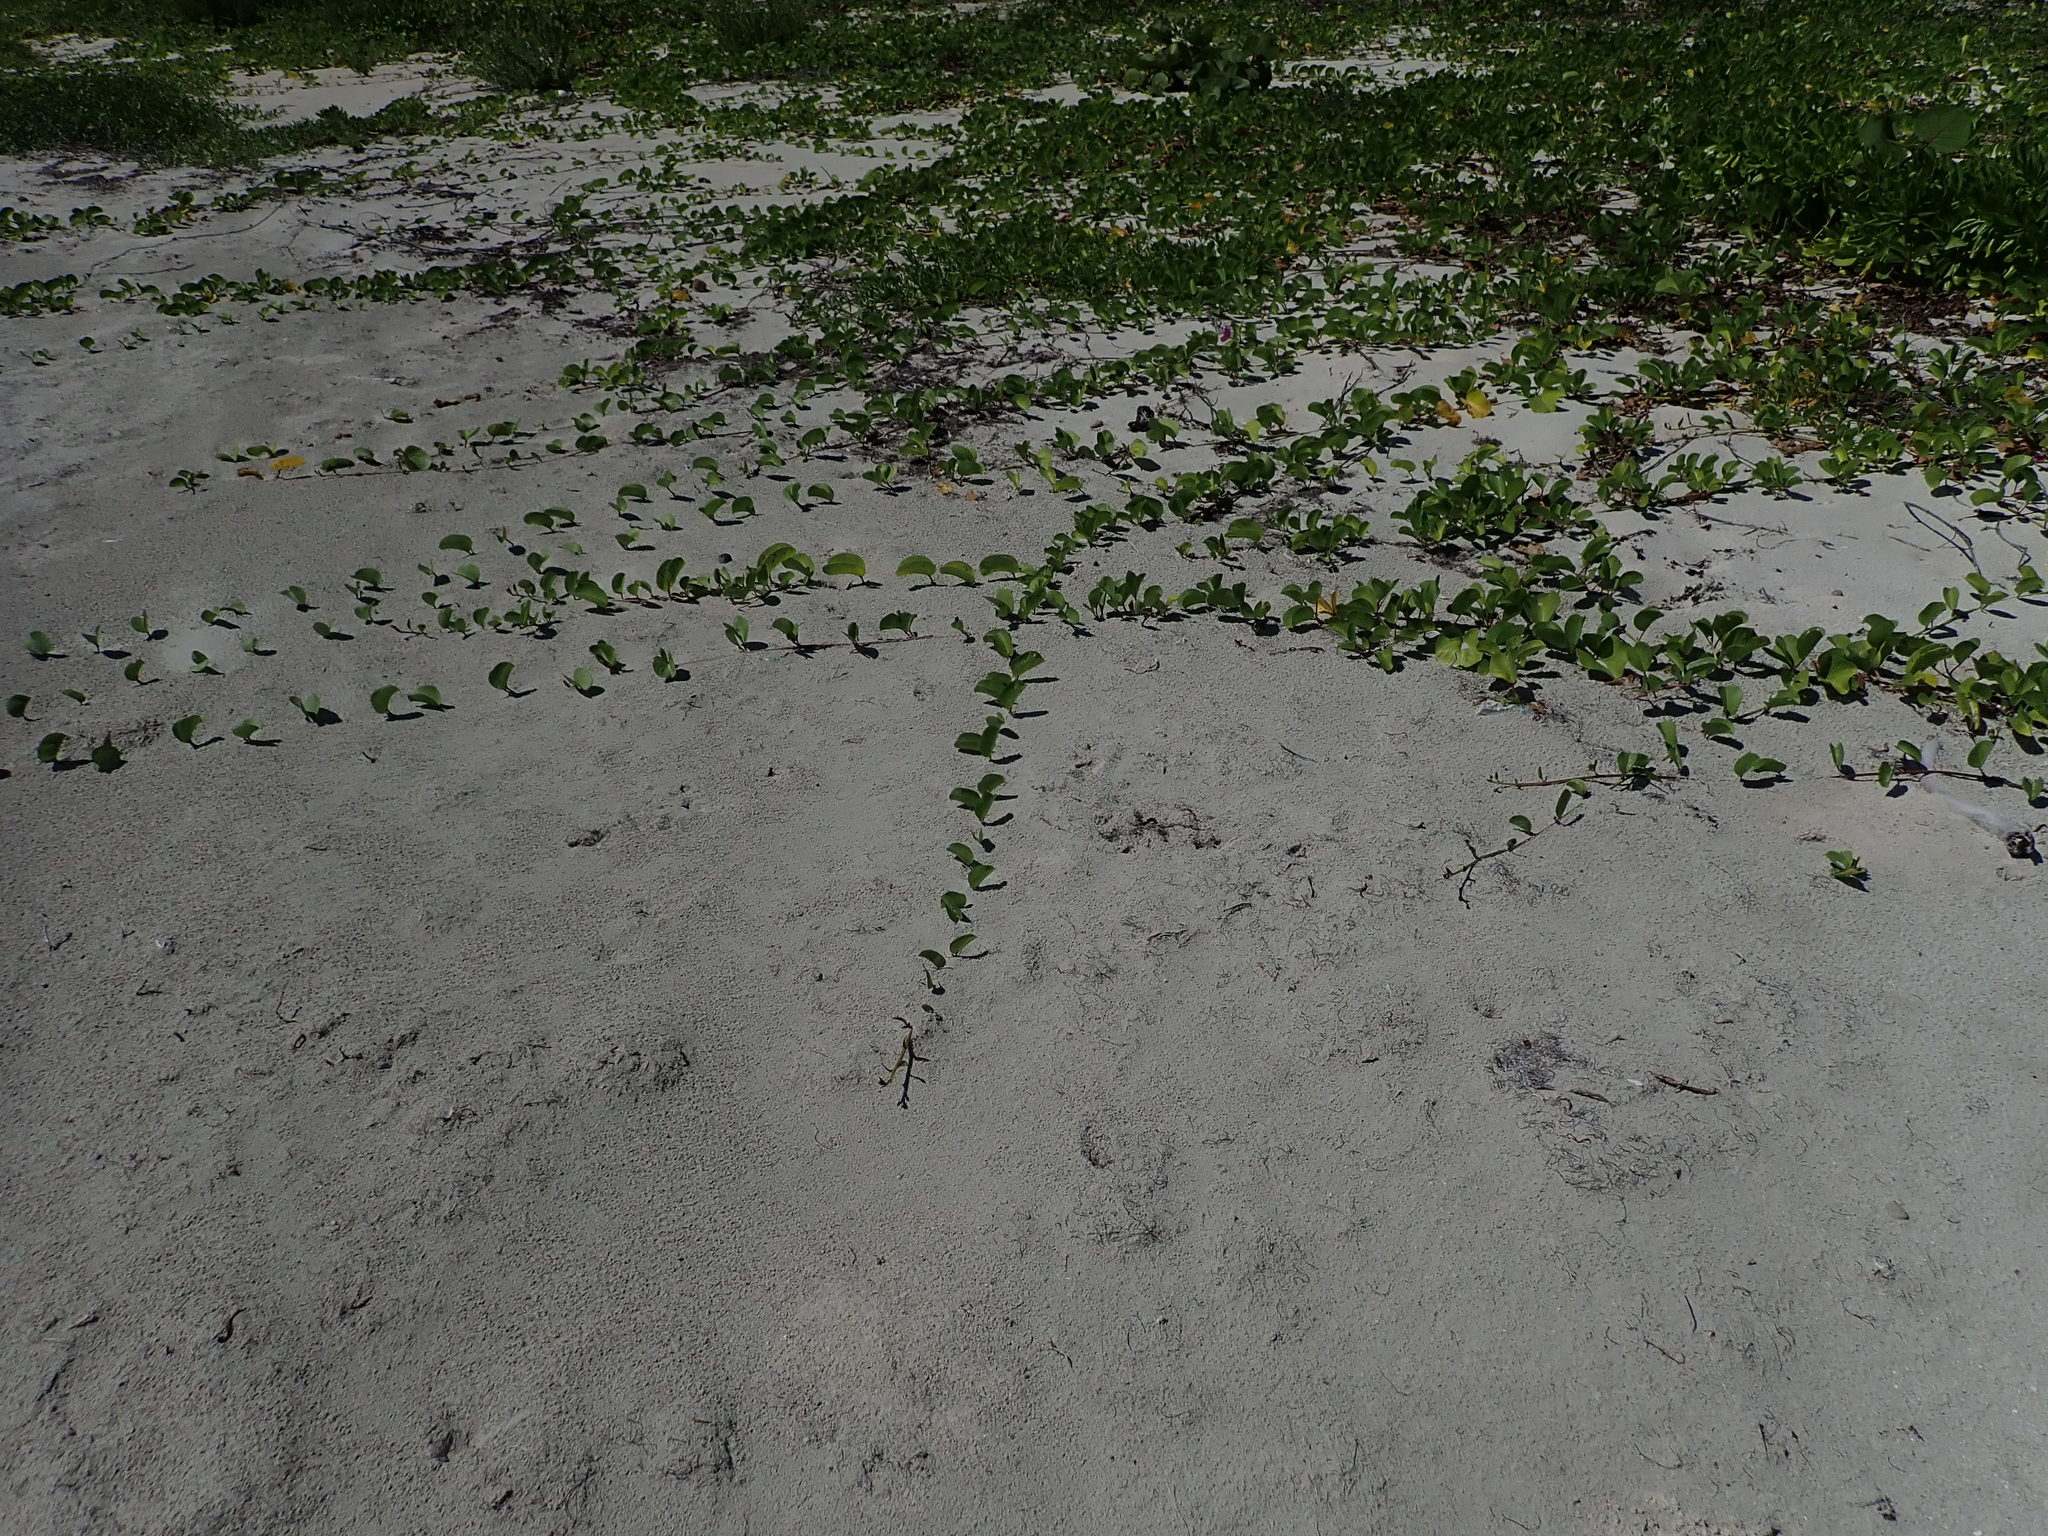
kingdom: Plantae
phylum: Tracheophyta
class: Magnoliopsida
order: Solanales
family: Convolvulaceae
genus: Ipomoea
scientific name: Ipomoea pes-caprae
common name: Beach morning glory
